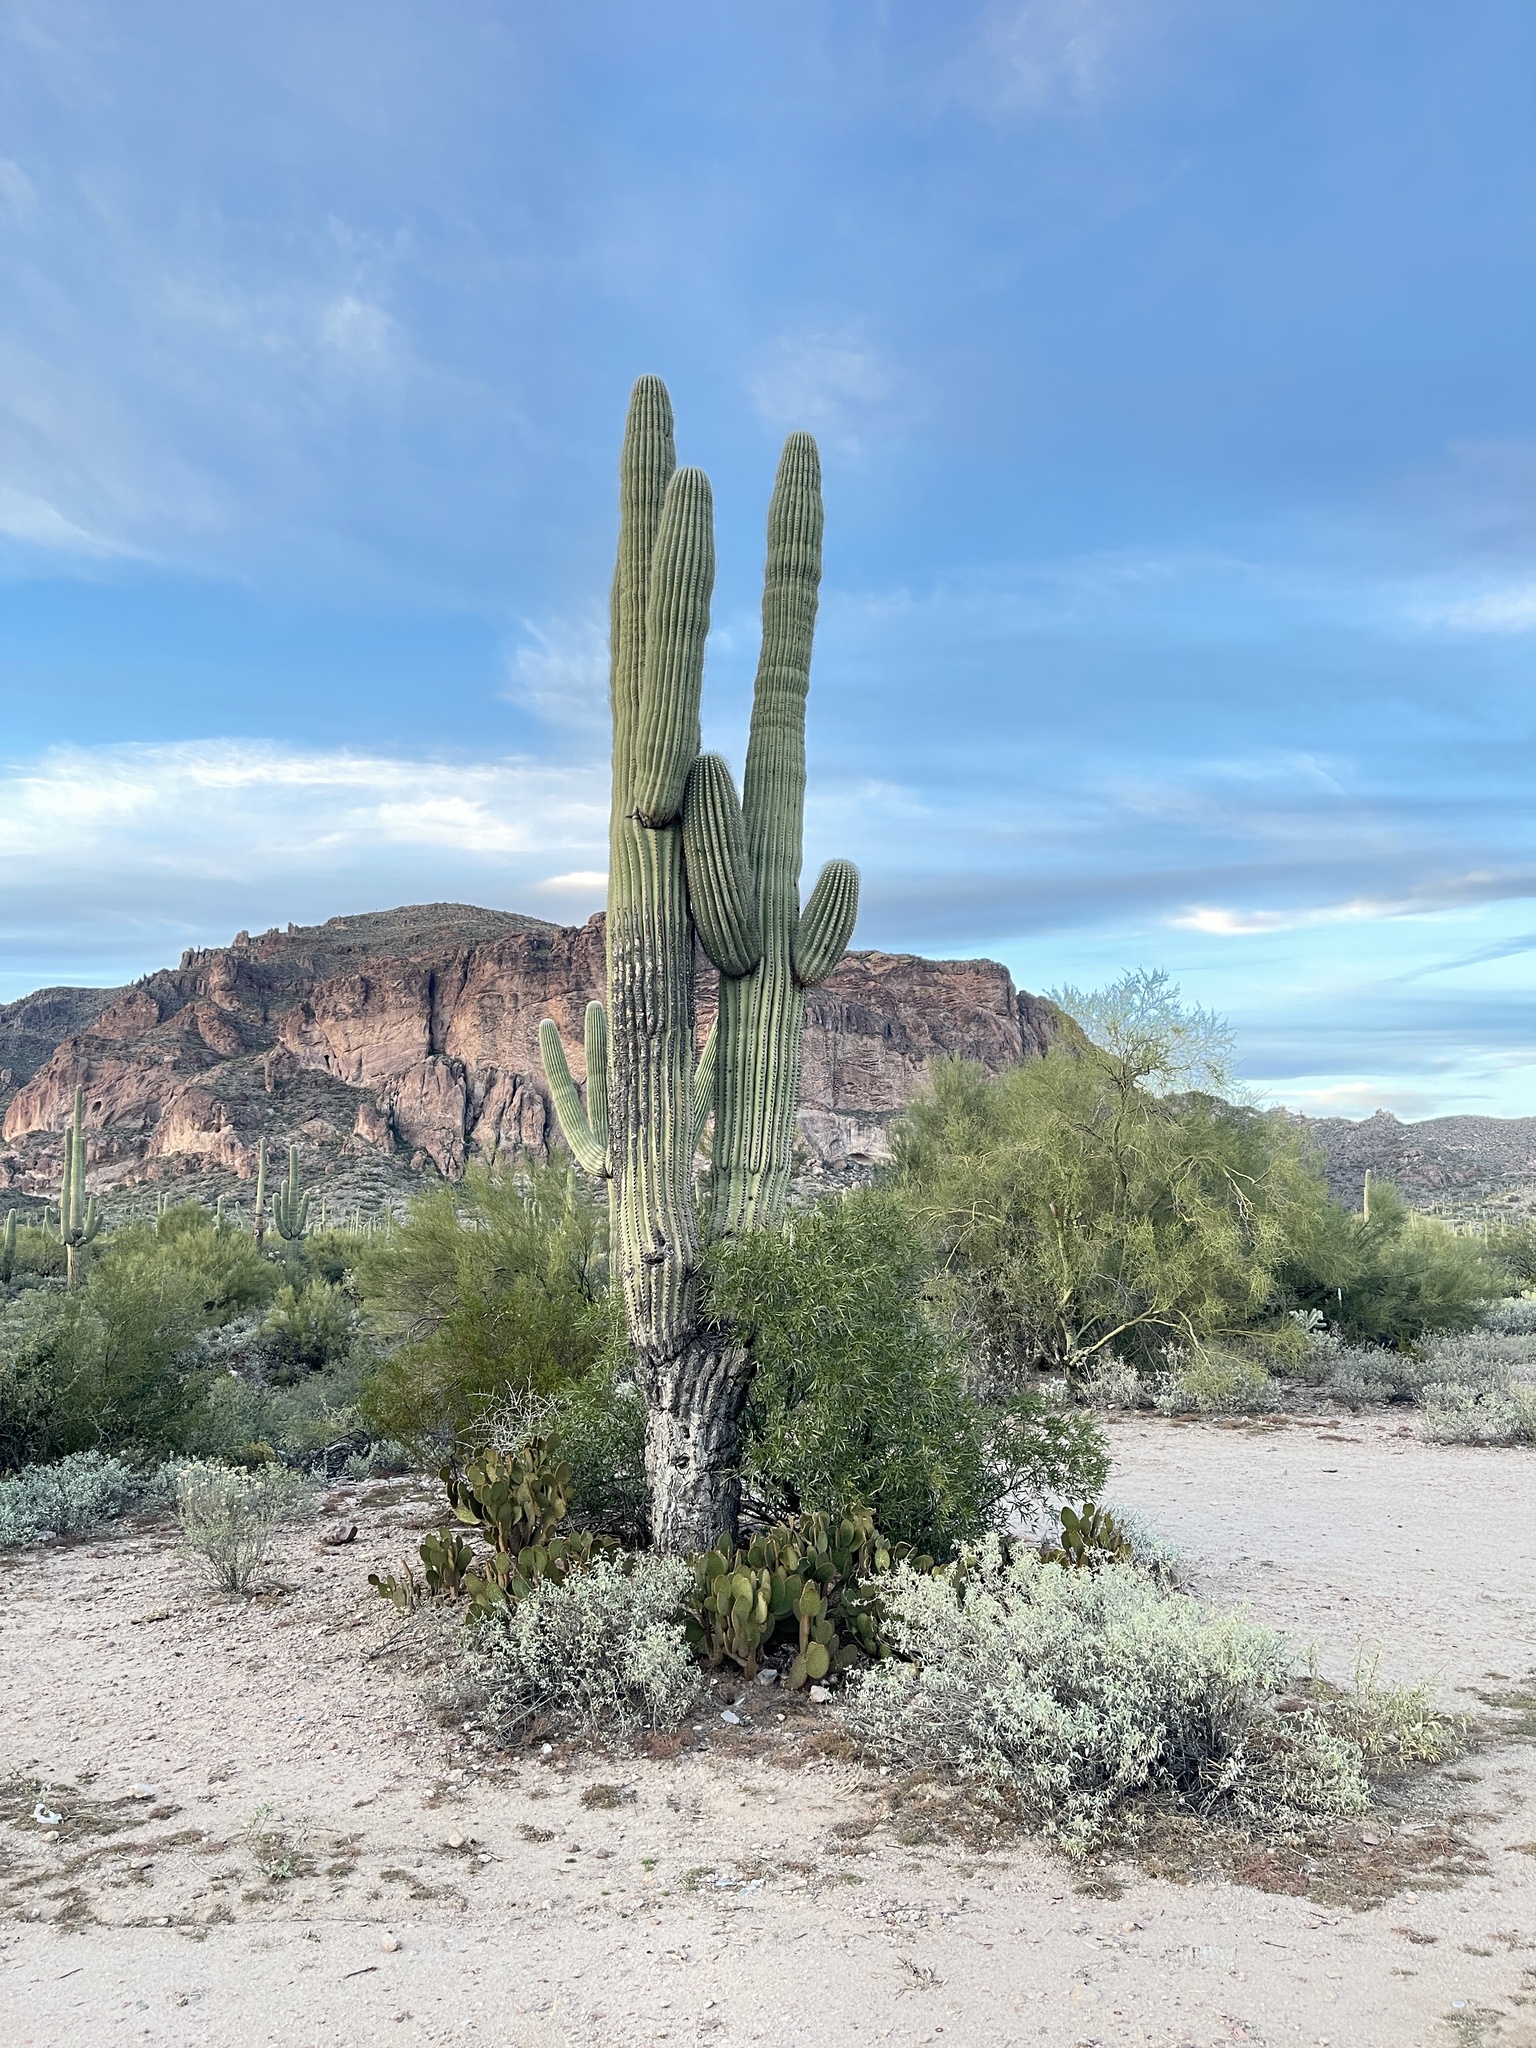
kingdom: Plantae
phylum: Tracheophyta
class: Magnoliopsida
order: Caryophyllales
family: Cactaceae
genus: Carnegiea
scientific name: Carnegiea gigantea
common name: Saguaro
